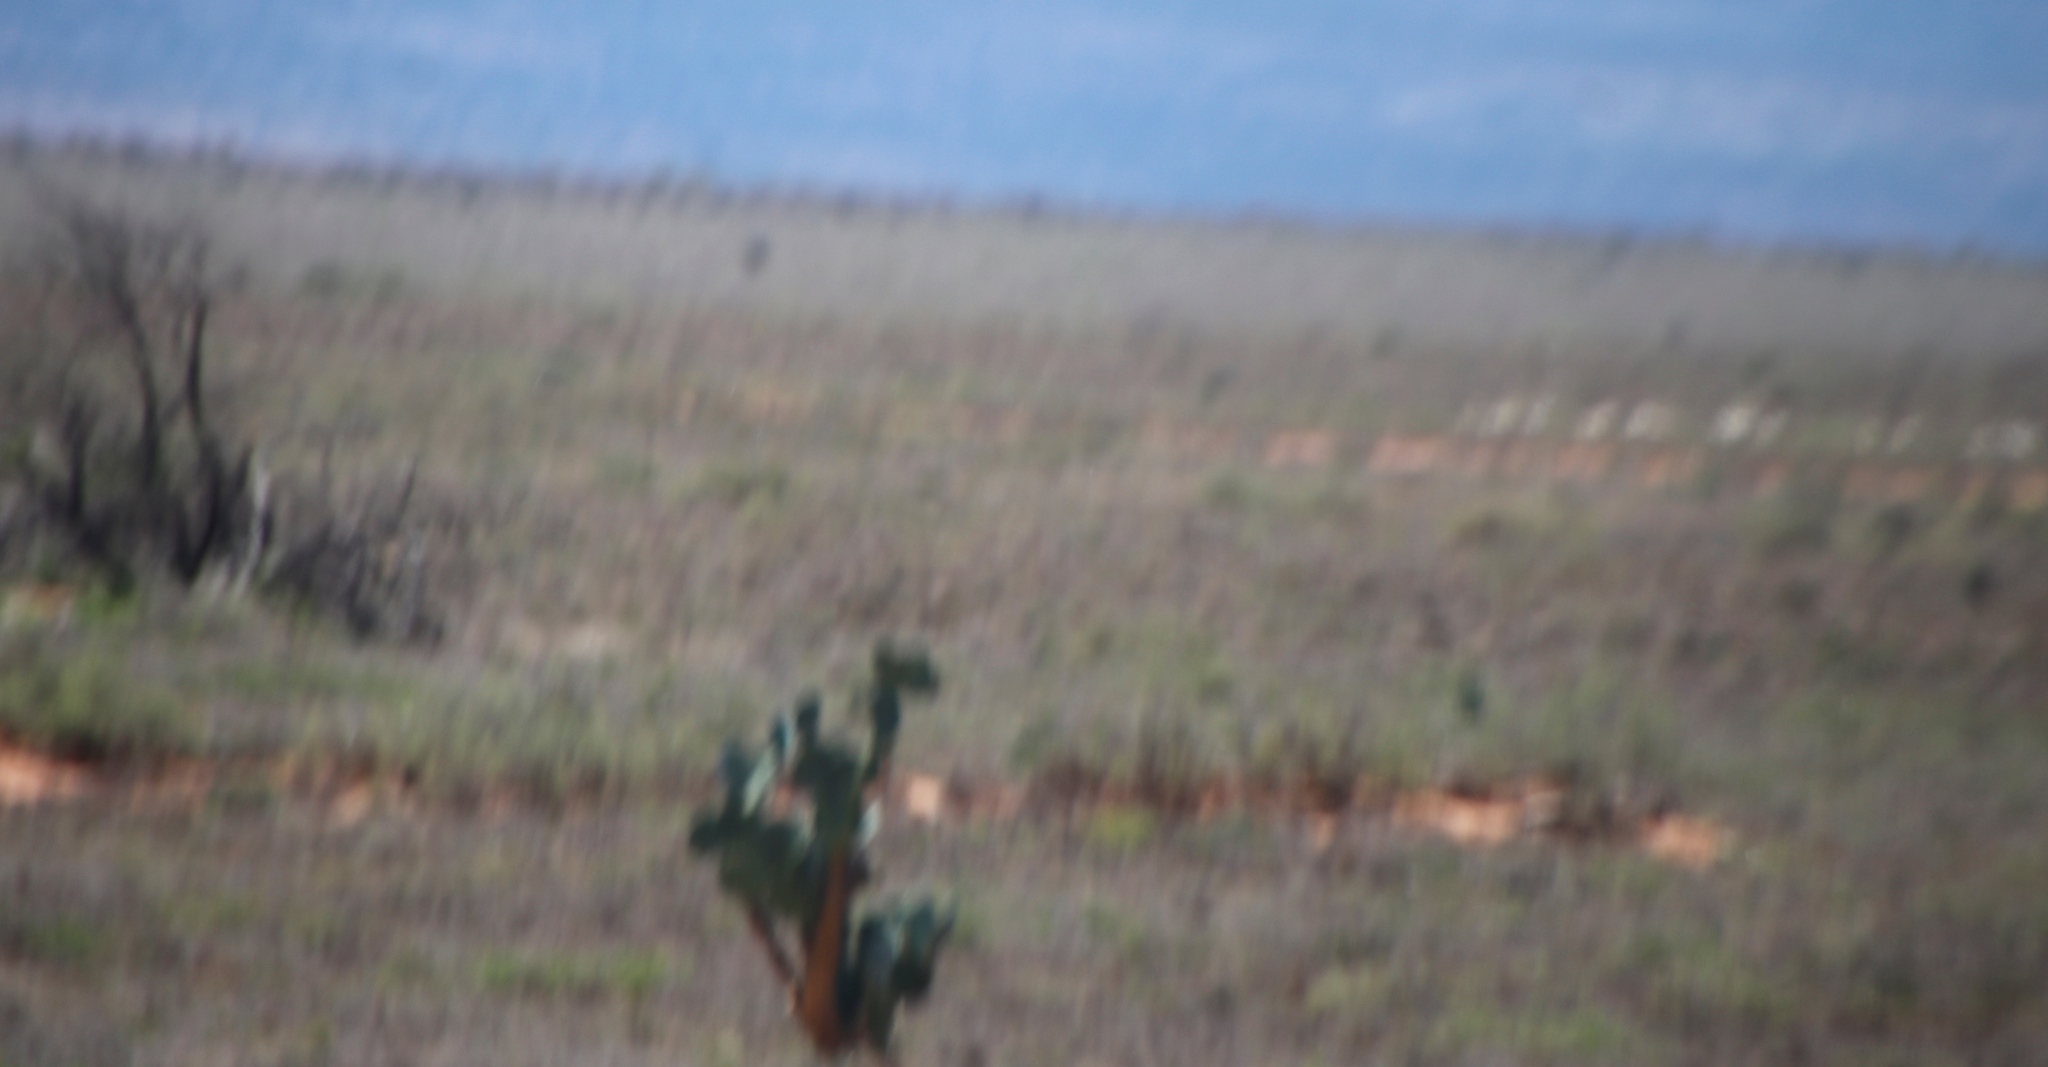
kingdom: Plantae
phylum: Tracheophyta
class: Magnoliopsida
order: Caryophyllales
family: Cactaceae
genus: Opuntia
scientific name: Opuntia ficus-indica
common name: Barbary fig
